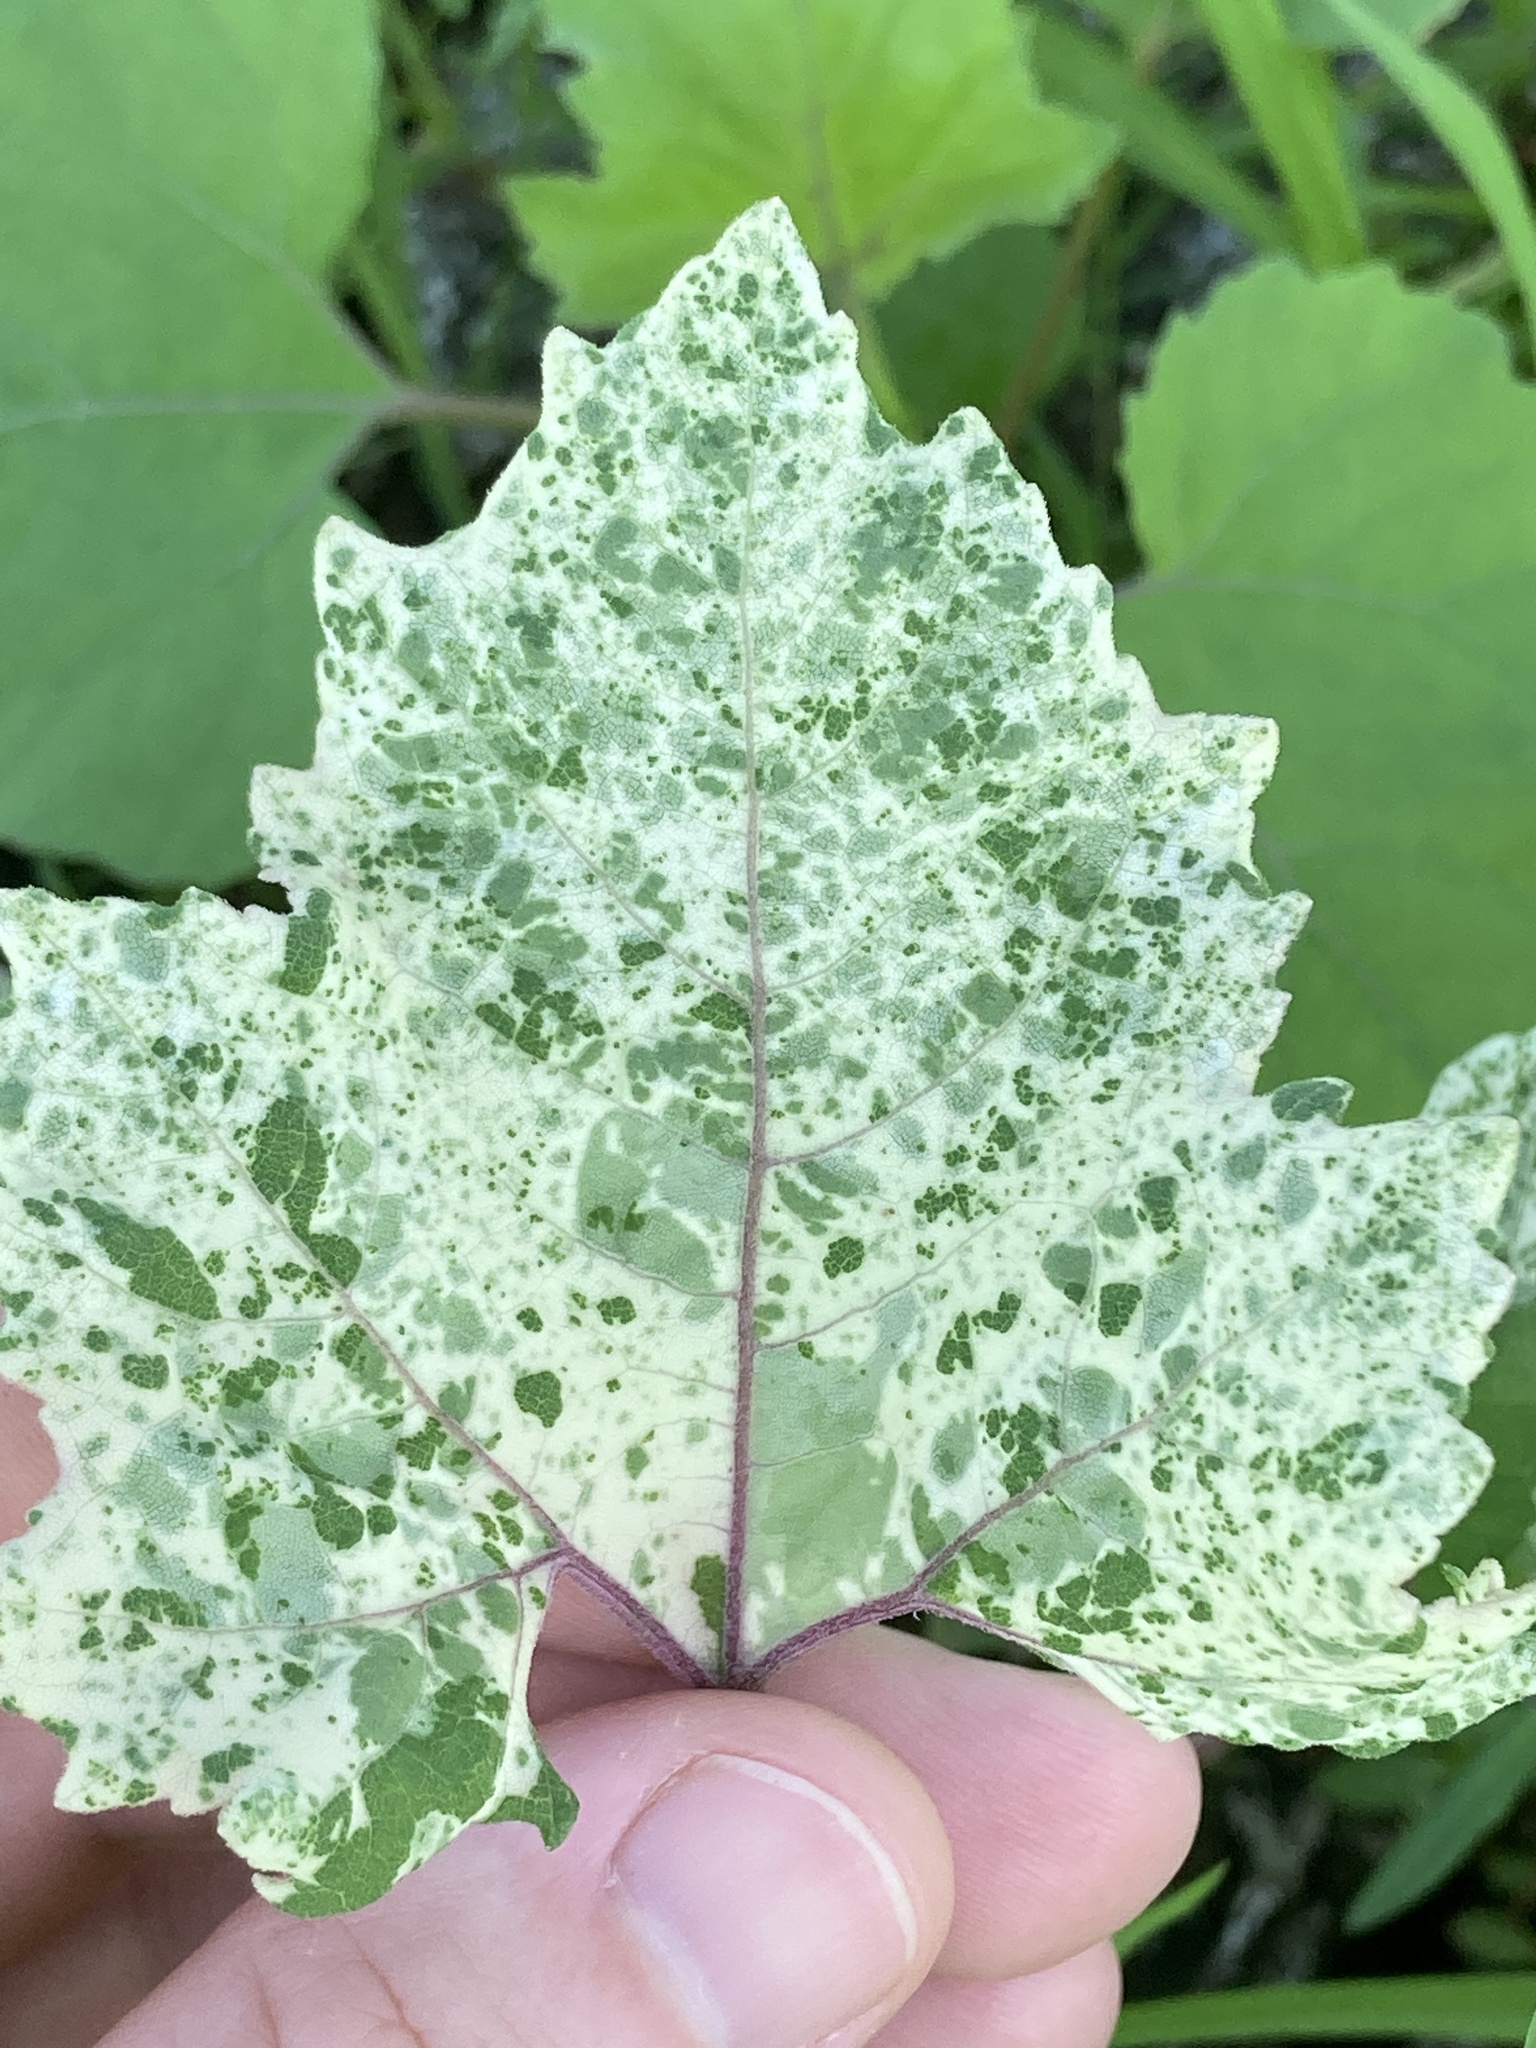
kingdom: Plantae
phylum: Tracheophyta
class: Magnoliopsida
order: Asterales
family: Asteraceae
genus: Xanthium
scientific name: Xanthium strumarium
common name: Rough cocklebur
